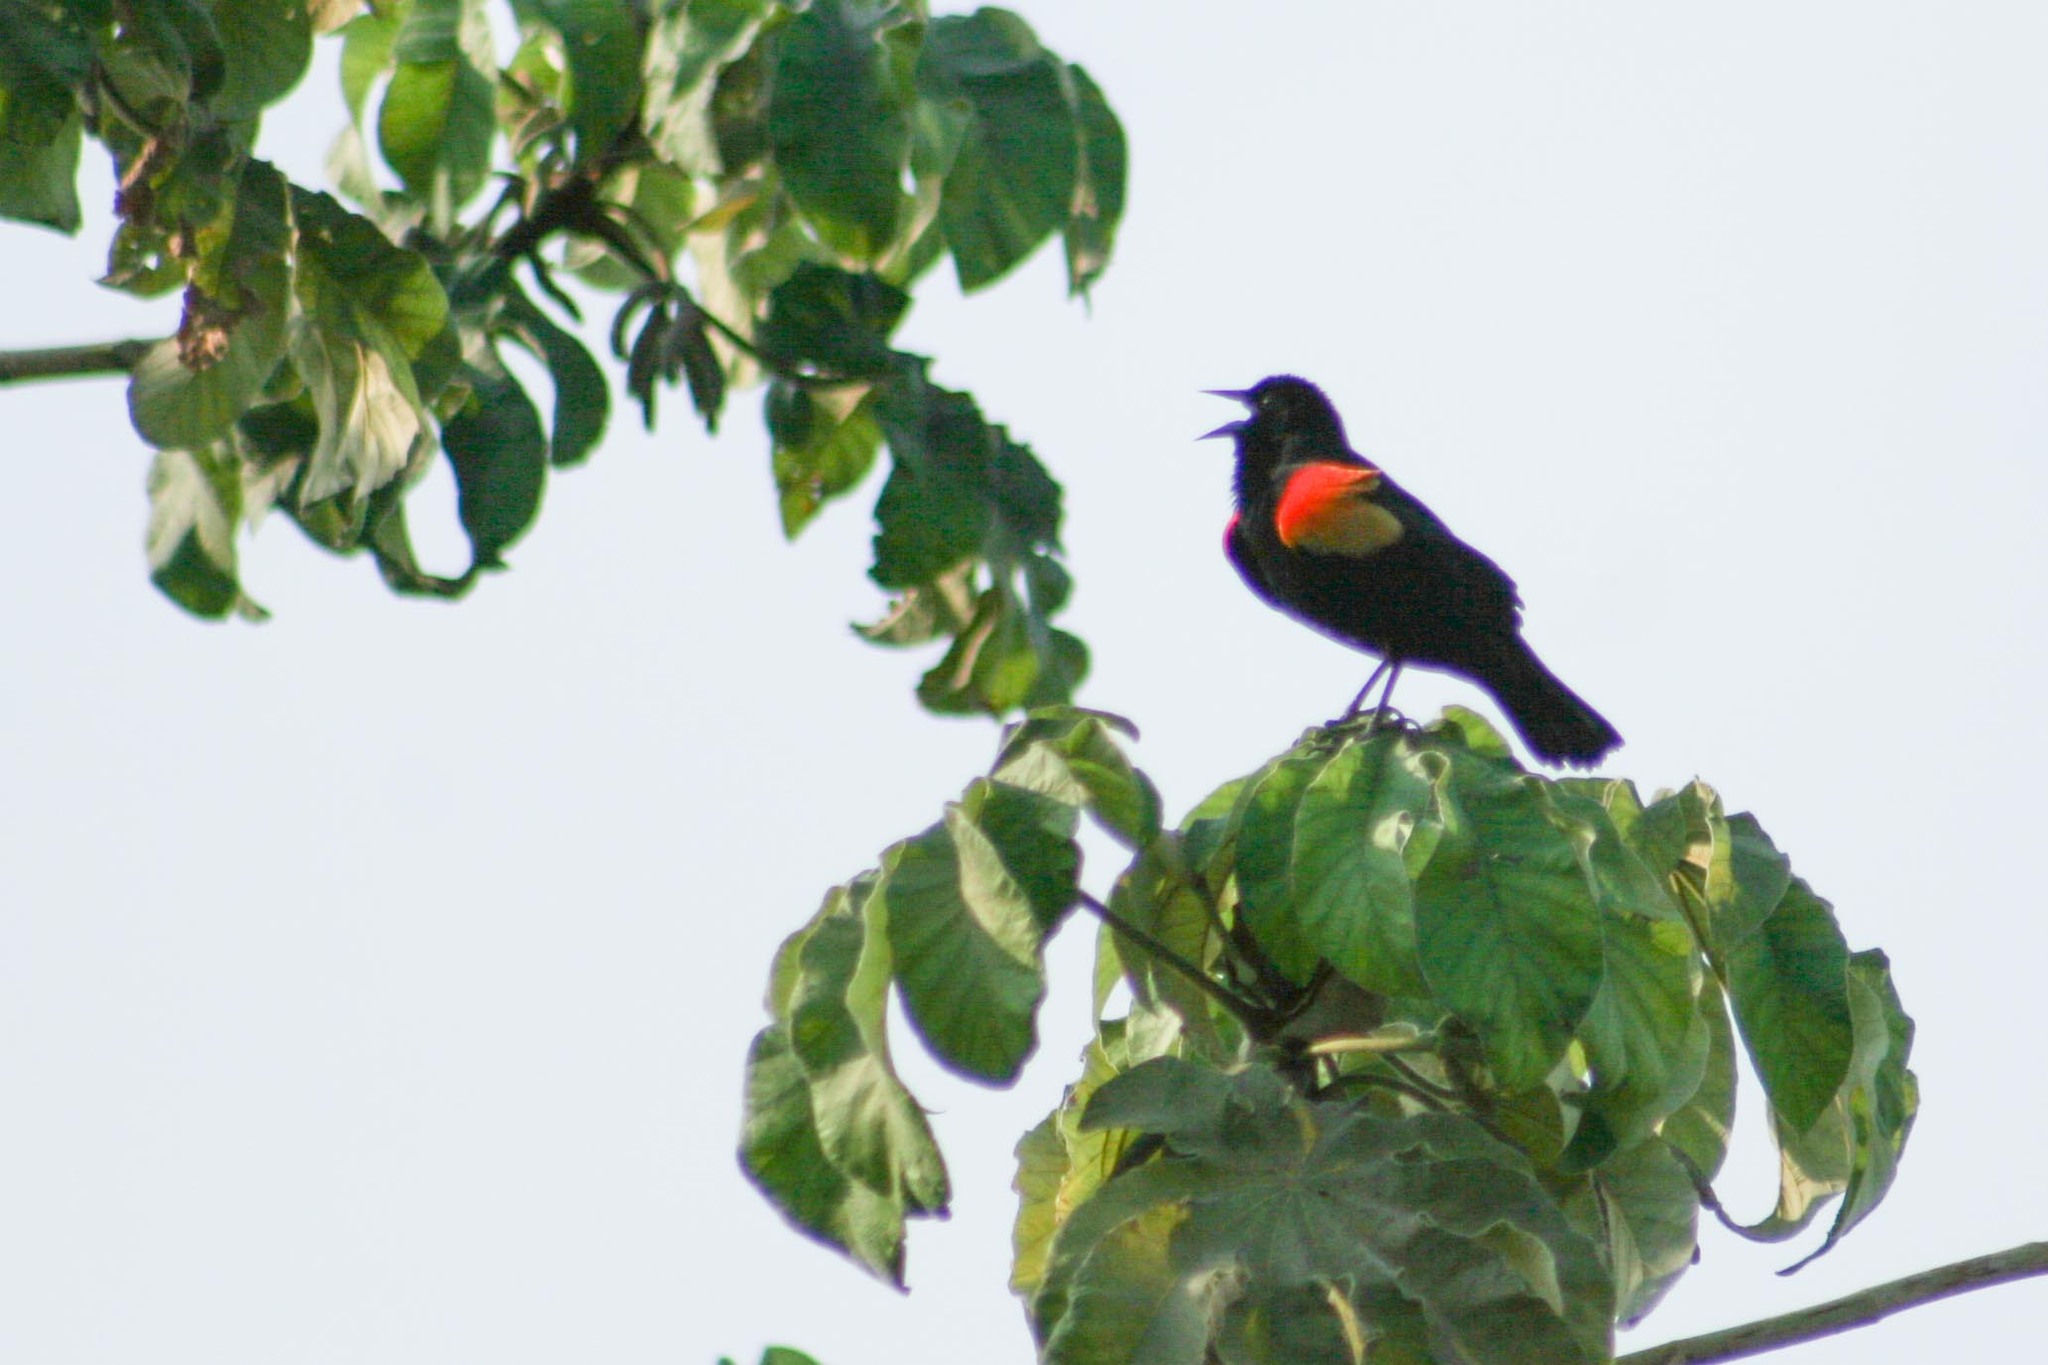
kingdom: Animalia
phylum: Chordata
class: Aves
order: Passeriformes
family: Icteridae
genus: Agelaius
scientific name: Agelaius phoeniceus
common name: Red-winged blackbird
